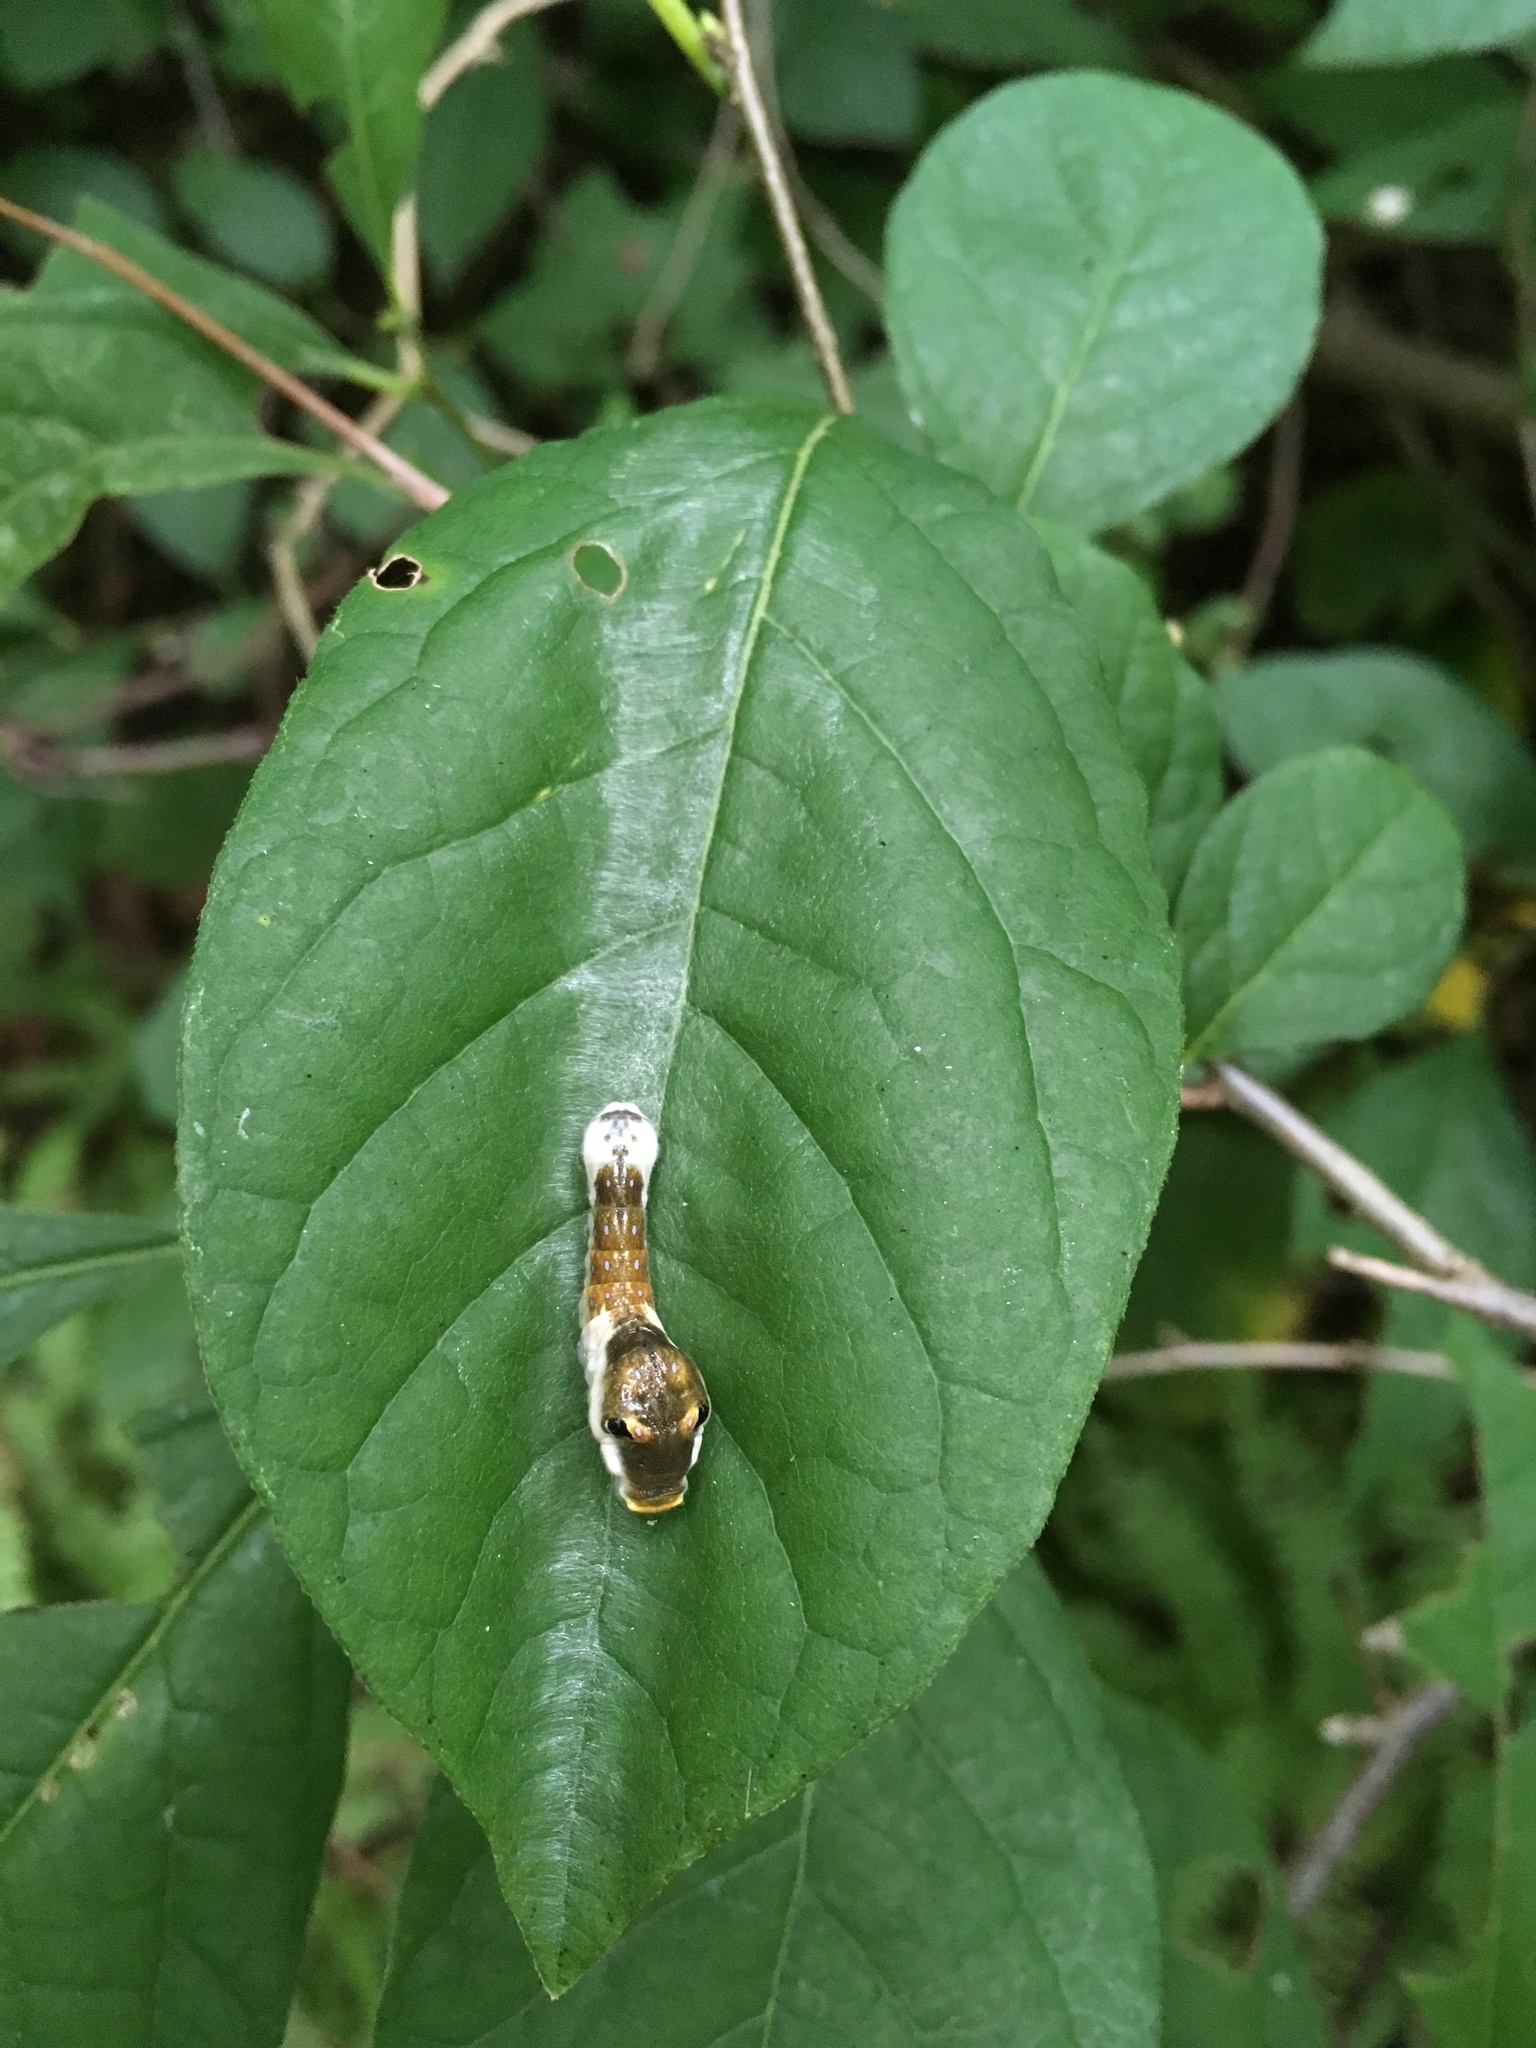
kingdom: Animalia
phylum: Arthropoda
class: Insecta
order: Lepidoptera
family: Papilionidae
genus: Papilio
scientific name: Papilio troilus
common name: Spicebush swallowtail
